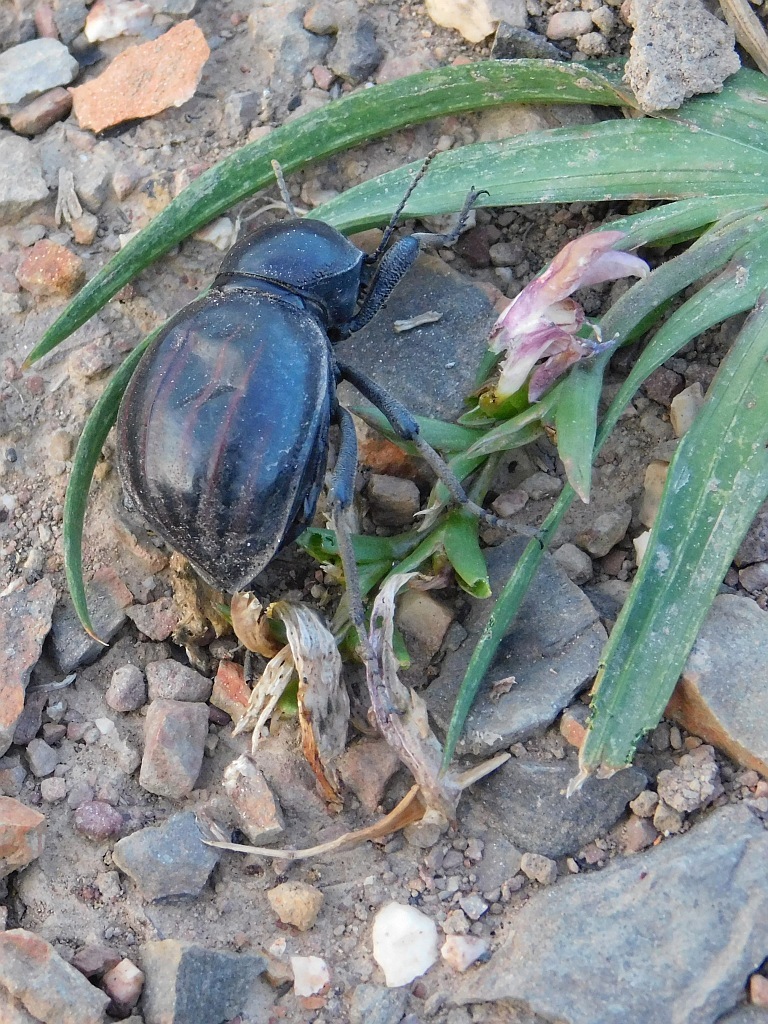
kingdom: Animalia
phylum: Arthropoda
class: Insecta
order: Coleoptera
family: Tenebrionidae
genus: Mariazofia
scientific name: Mariazofia
